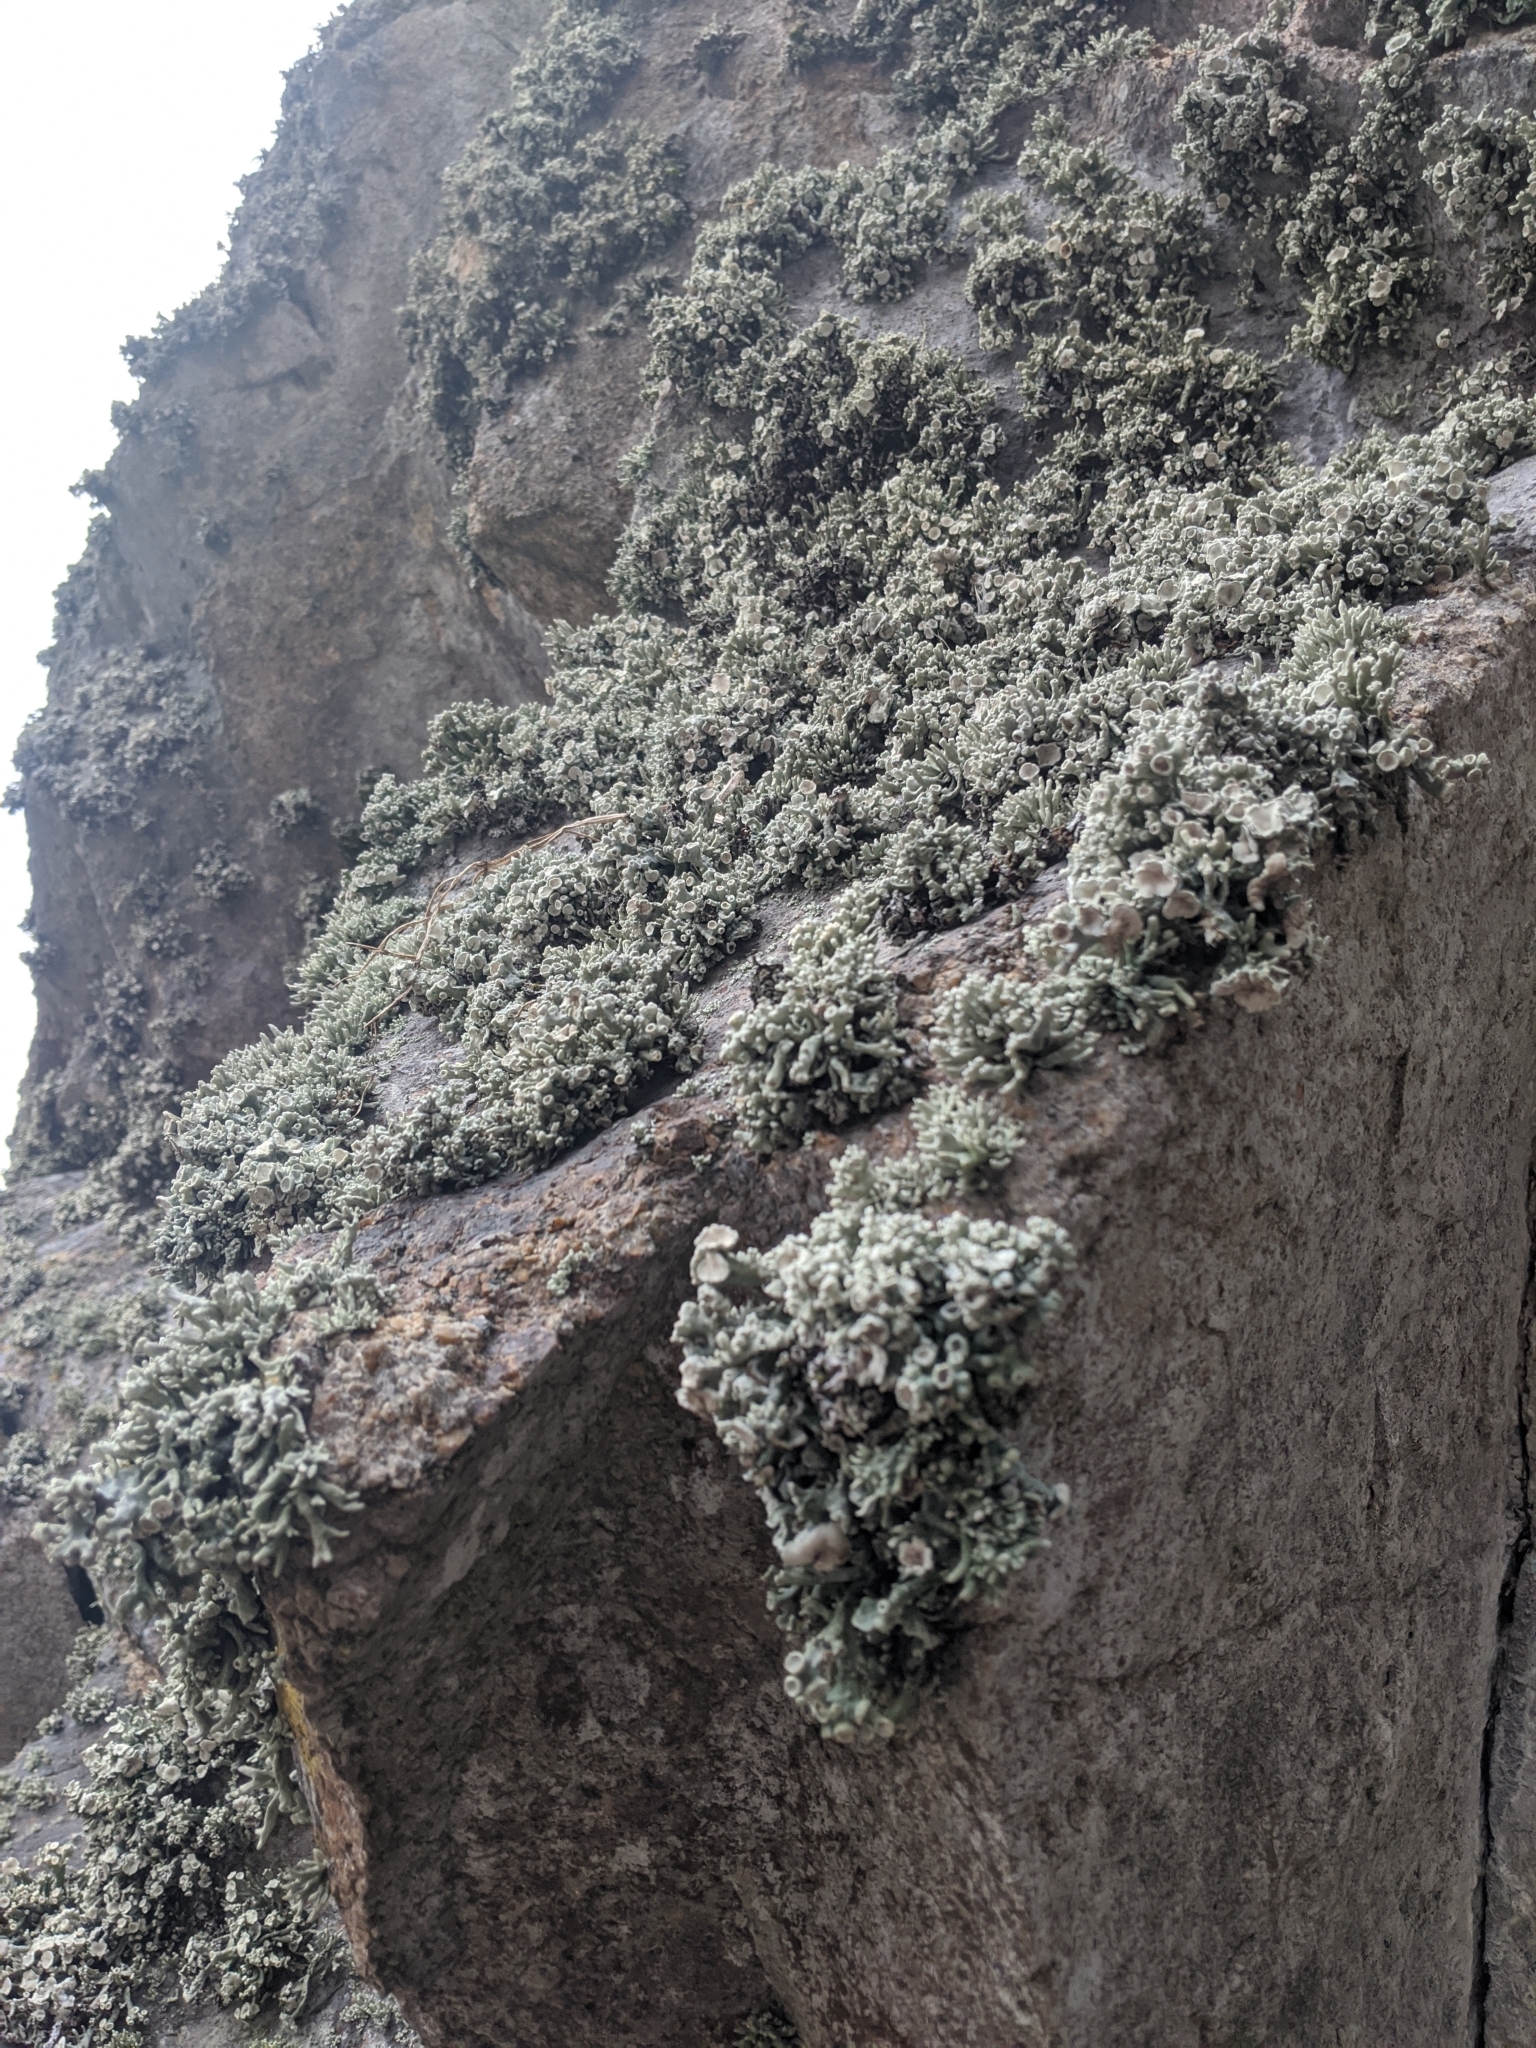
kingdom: Fungi
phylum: Ascomycota
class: Lecanoromycetes
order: Lecanorales
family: Ramalinaceae
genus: Niebla
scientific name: Niebla combeoides
